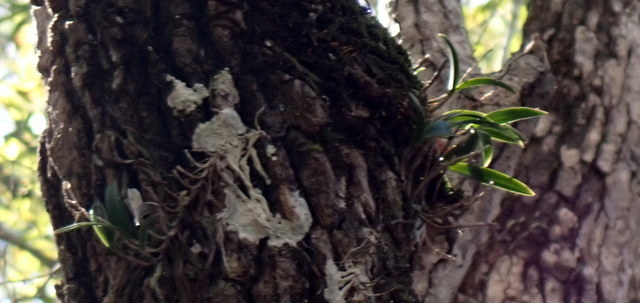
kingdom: Plantae
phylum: Tracheophyta
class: Liliopsida
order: Asparagales
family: Orchidaceae
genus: Epidendrum
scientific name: Epidendrum conopseum
